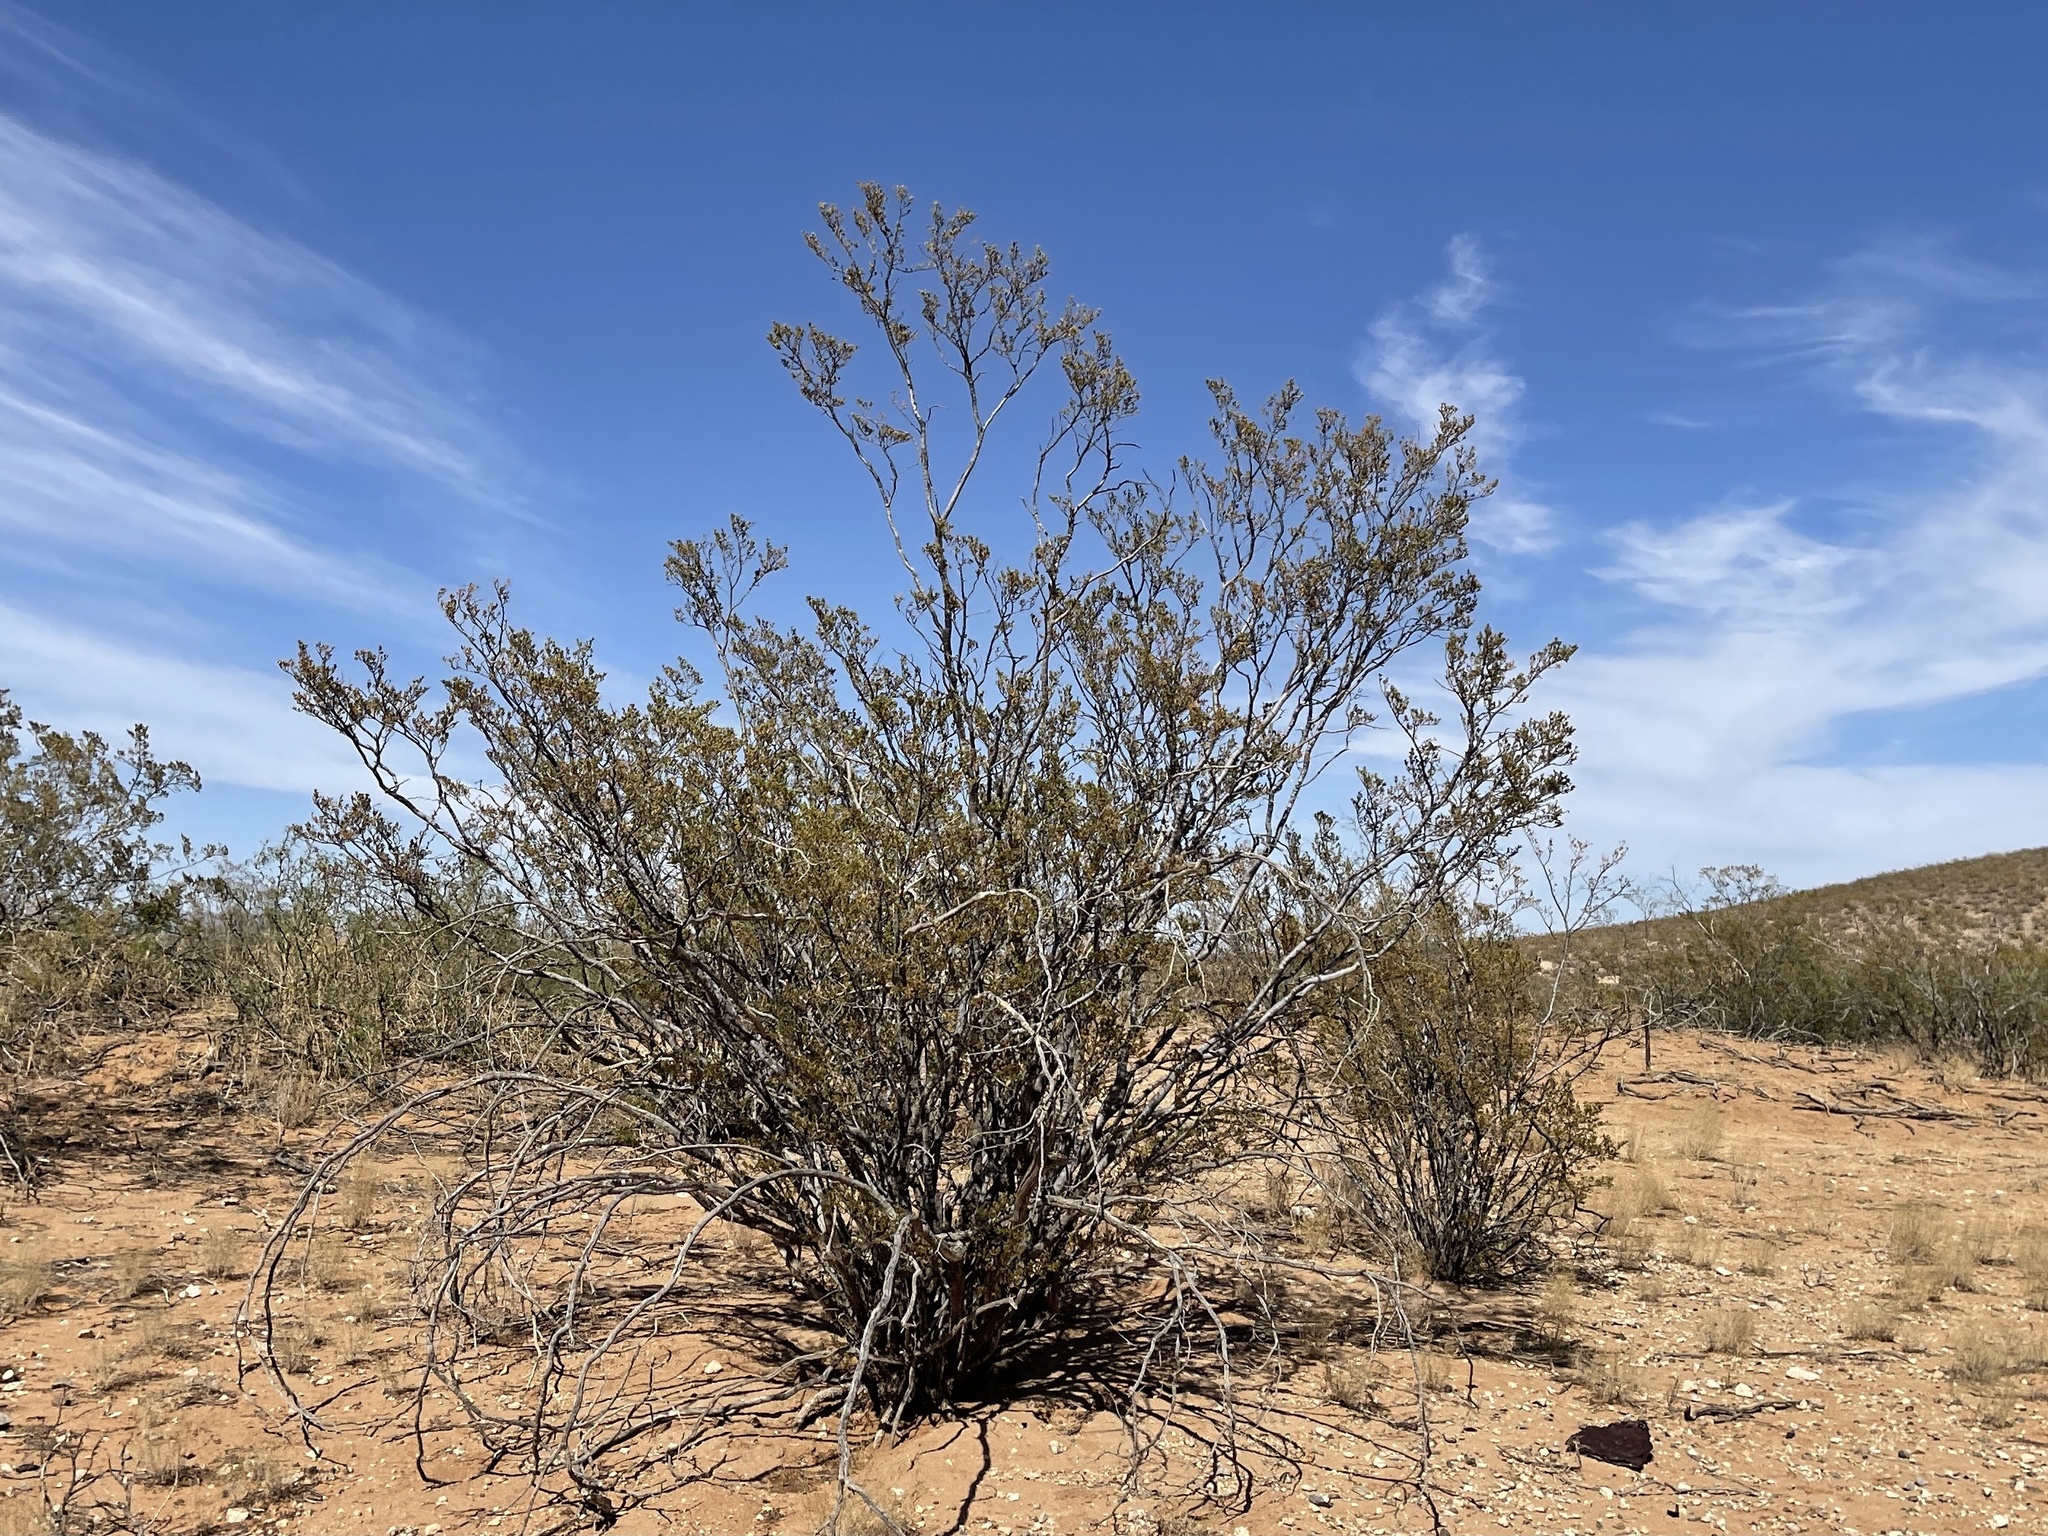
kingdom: Plantae
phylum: Tracheophyta
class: Magnoliopsida
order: Zygophyllales
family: Zygophyllaceae
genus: Larrea
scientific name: Larrea tridentata
